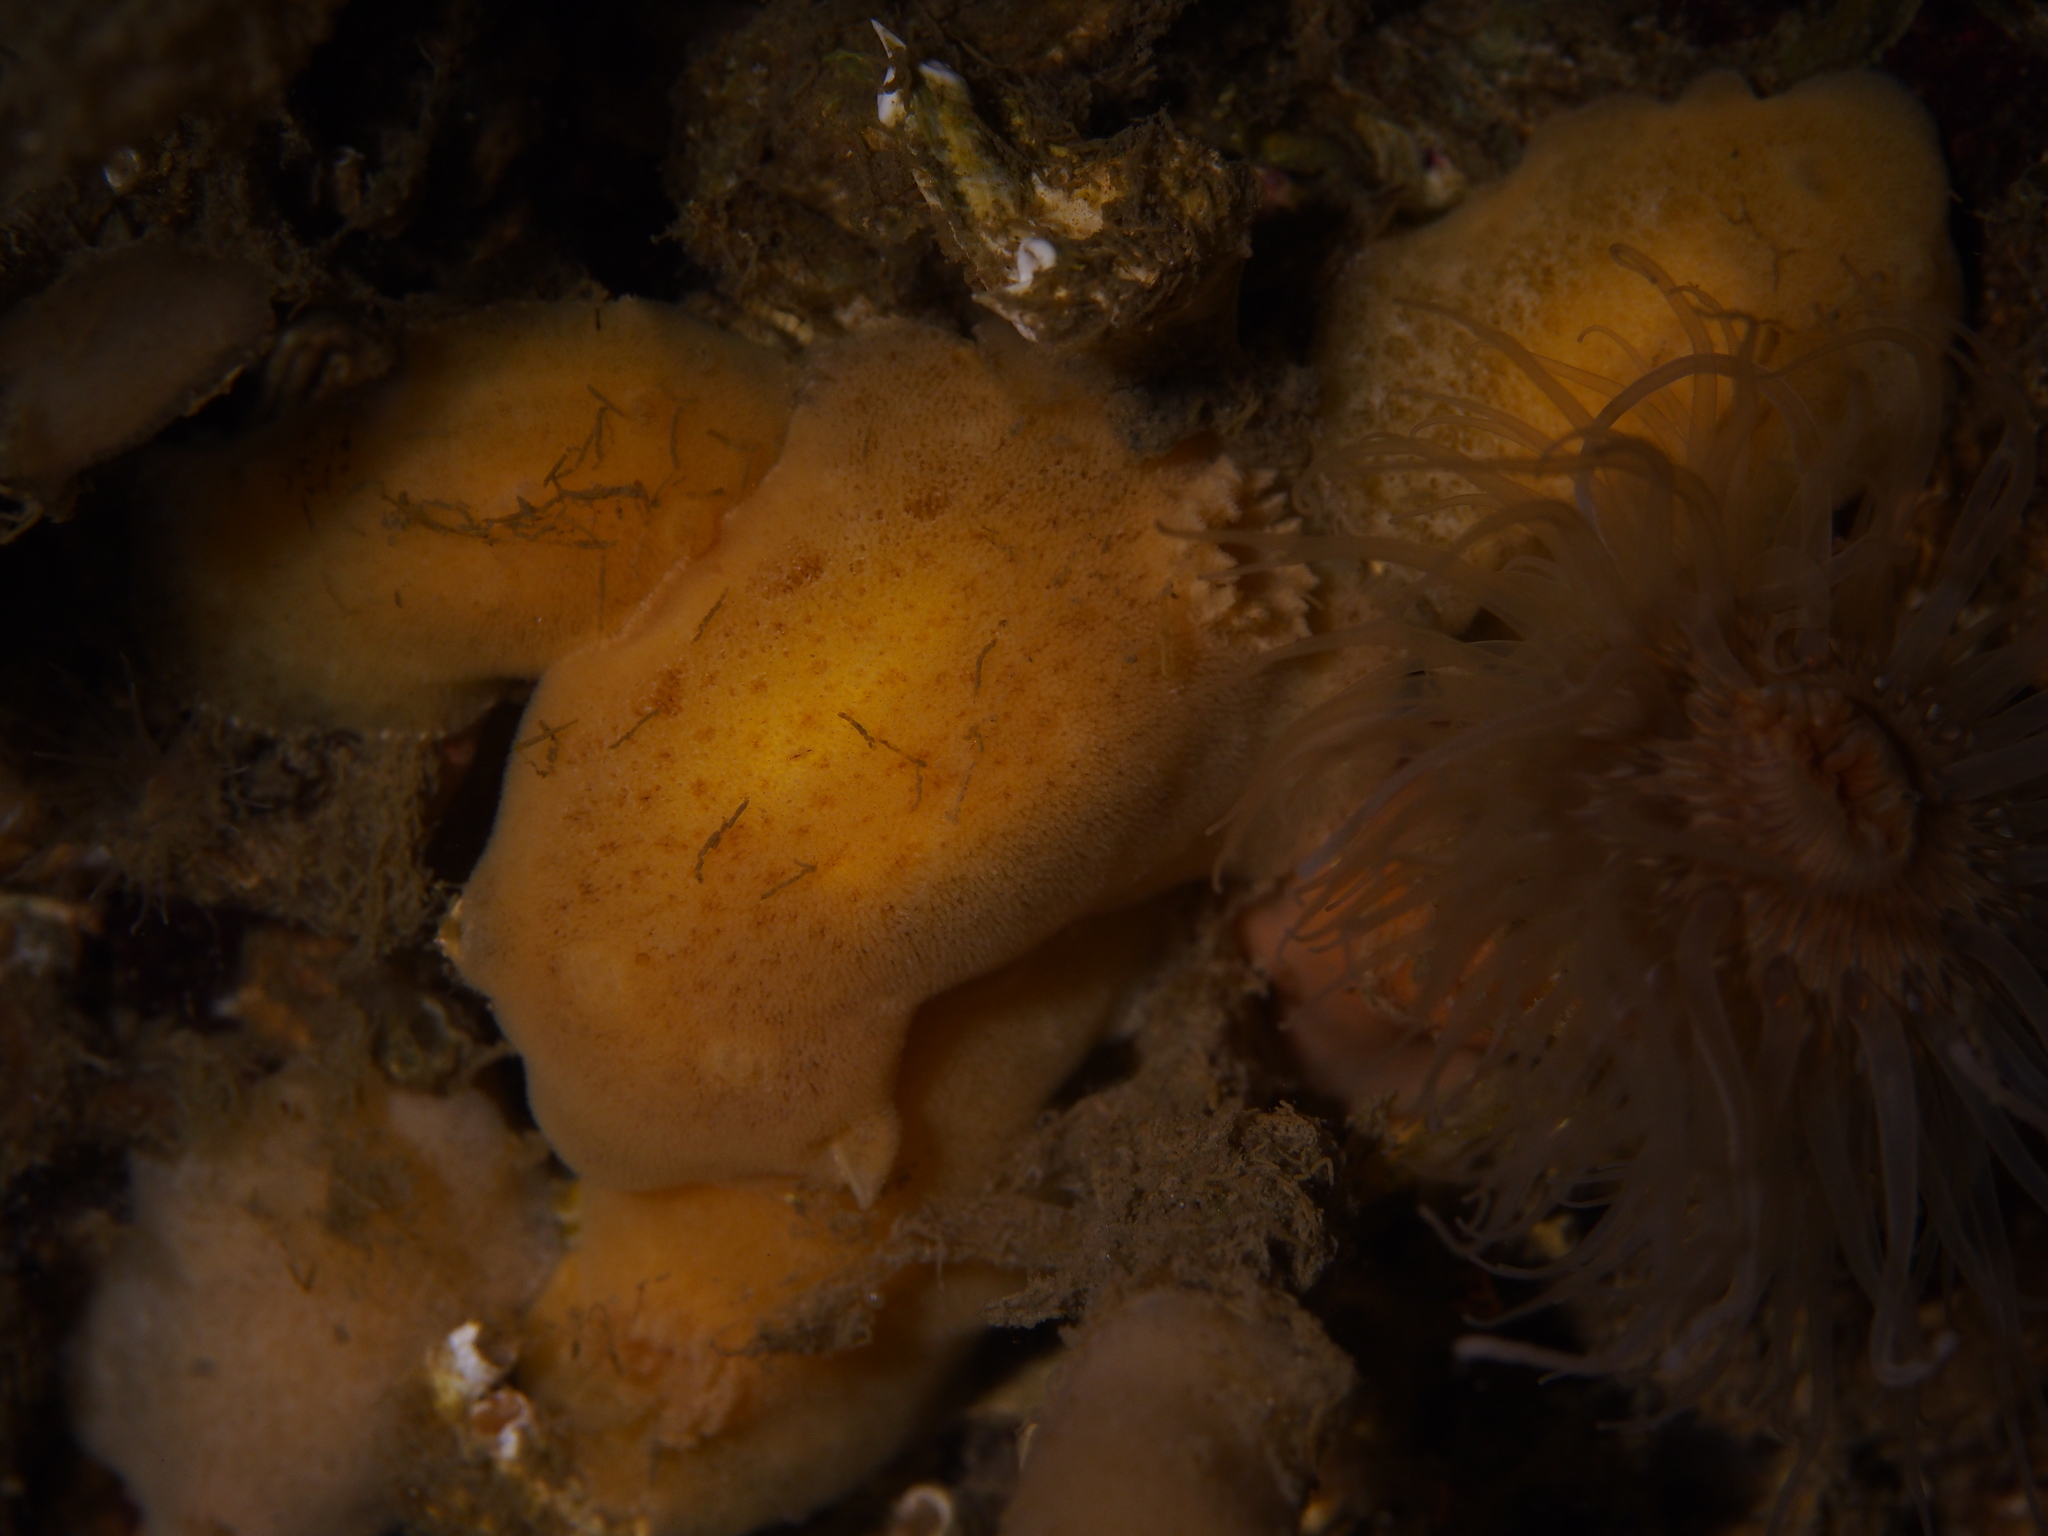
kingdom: Animalia
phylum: Mollusca
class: Gastropoda
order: Nudibranchia
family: Discodorididae
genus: Jorunna
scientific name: Jorunna tomentosa
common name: Grey sea slug
